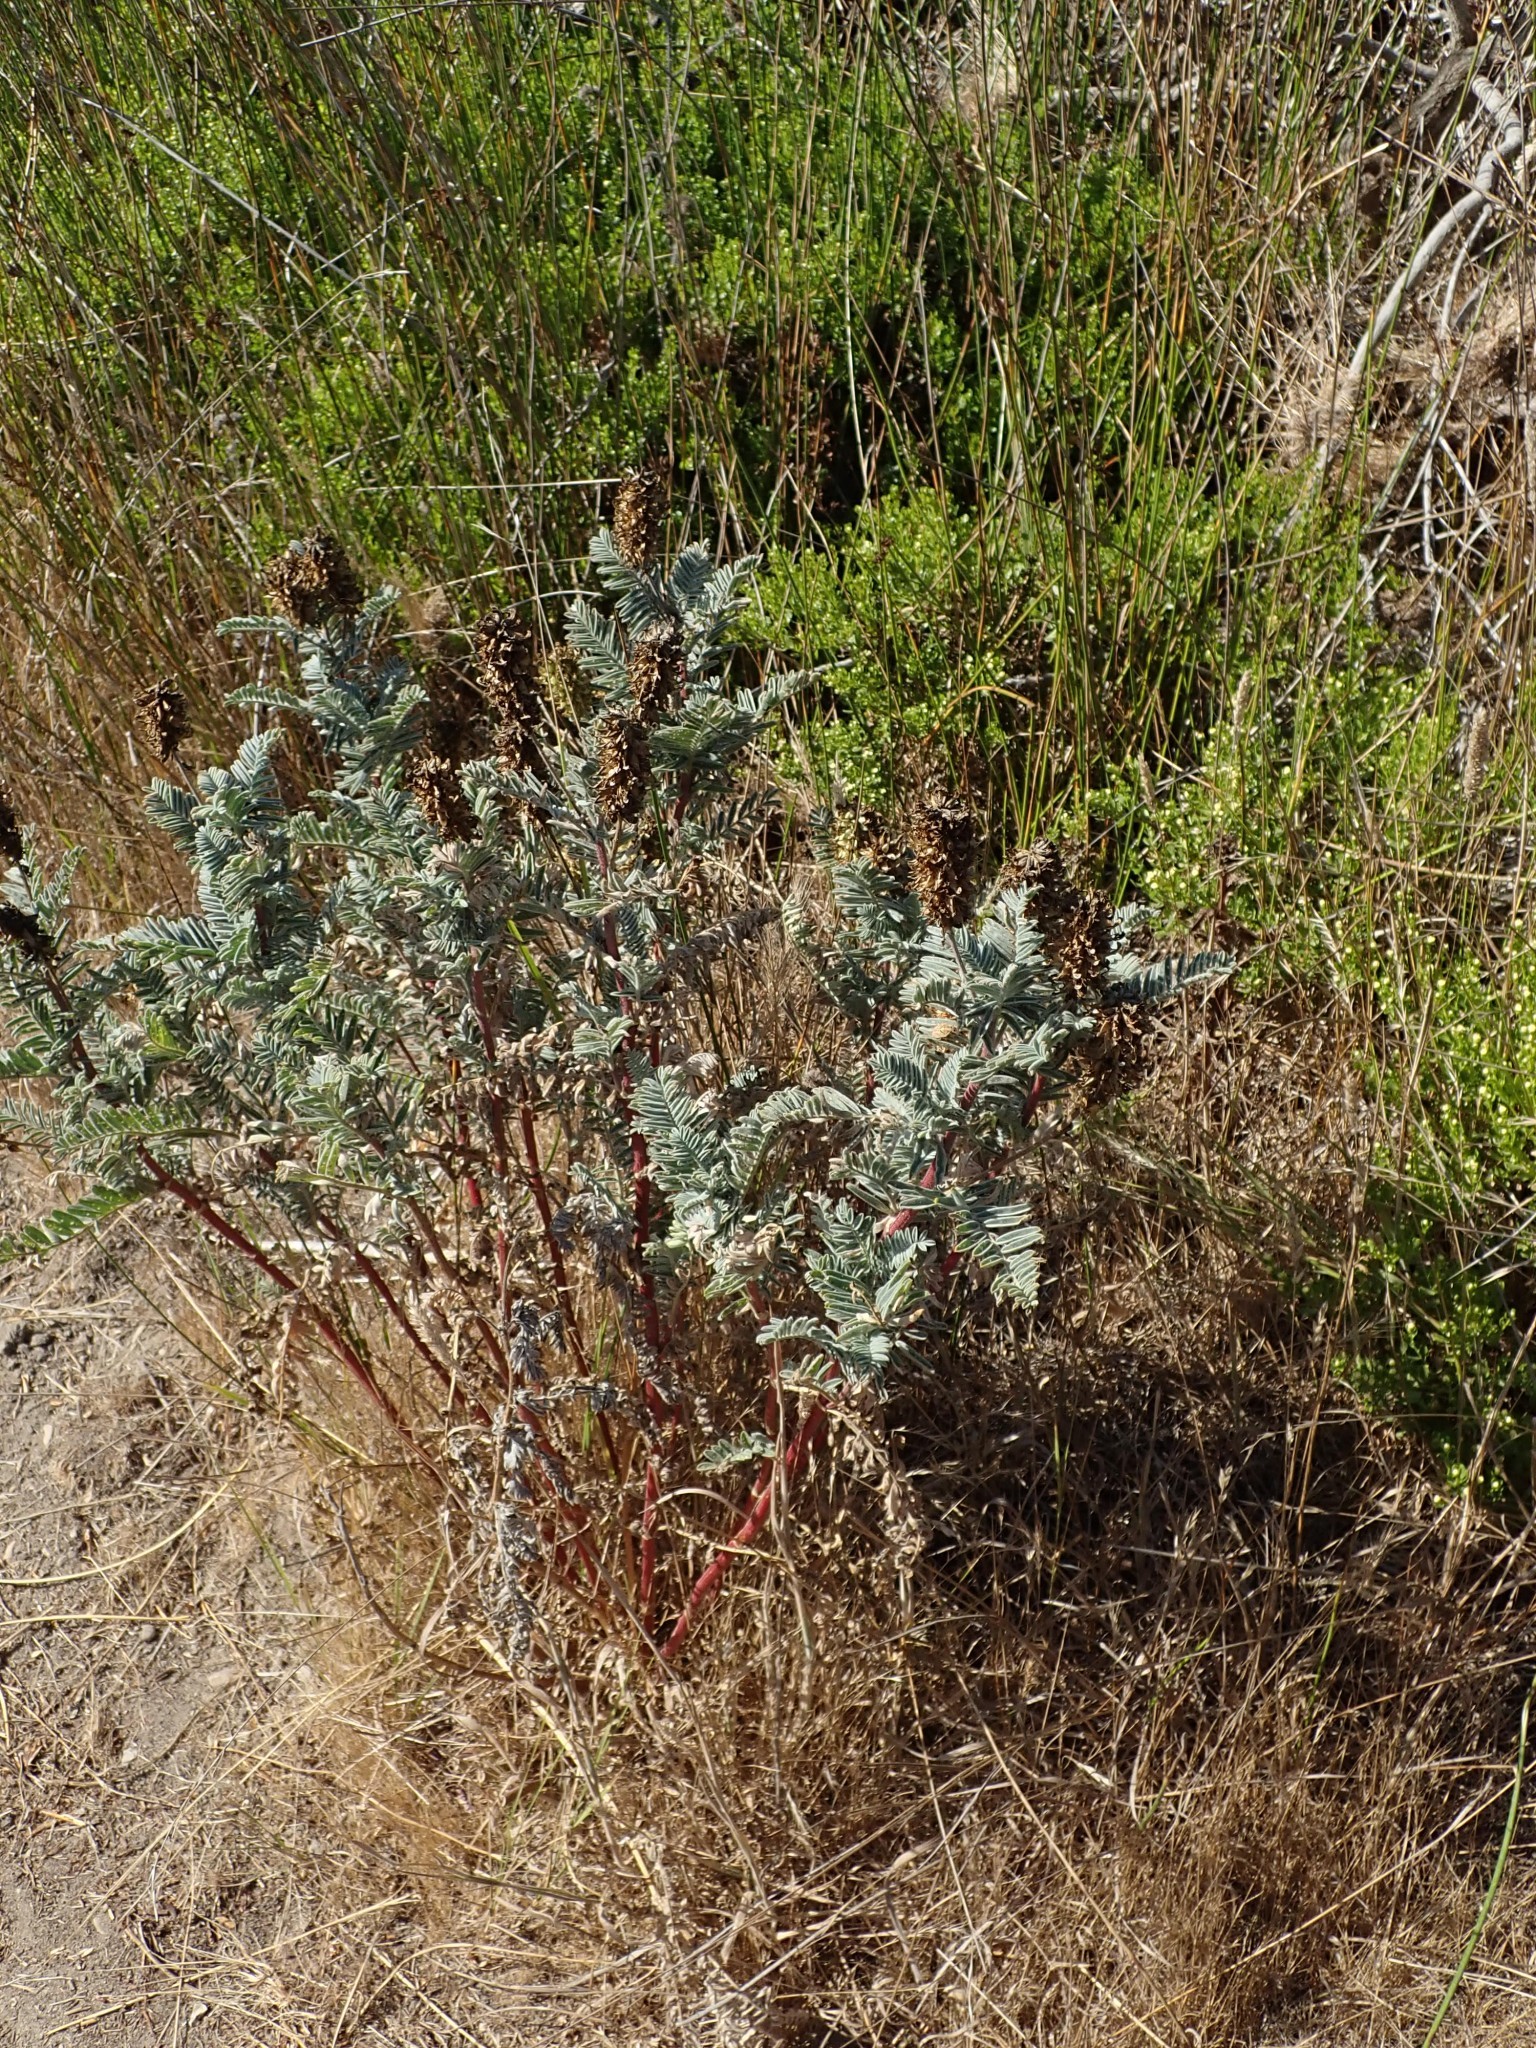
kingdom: Plantae
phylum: Tracheophyta
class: Magnoliopsida
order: Fabales
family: Fabaceae
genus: Astragalus
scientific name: Astragalus pycnostachyus
